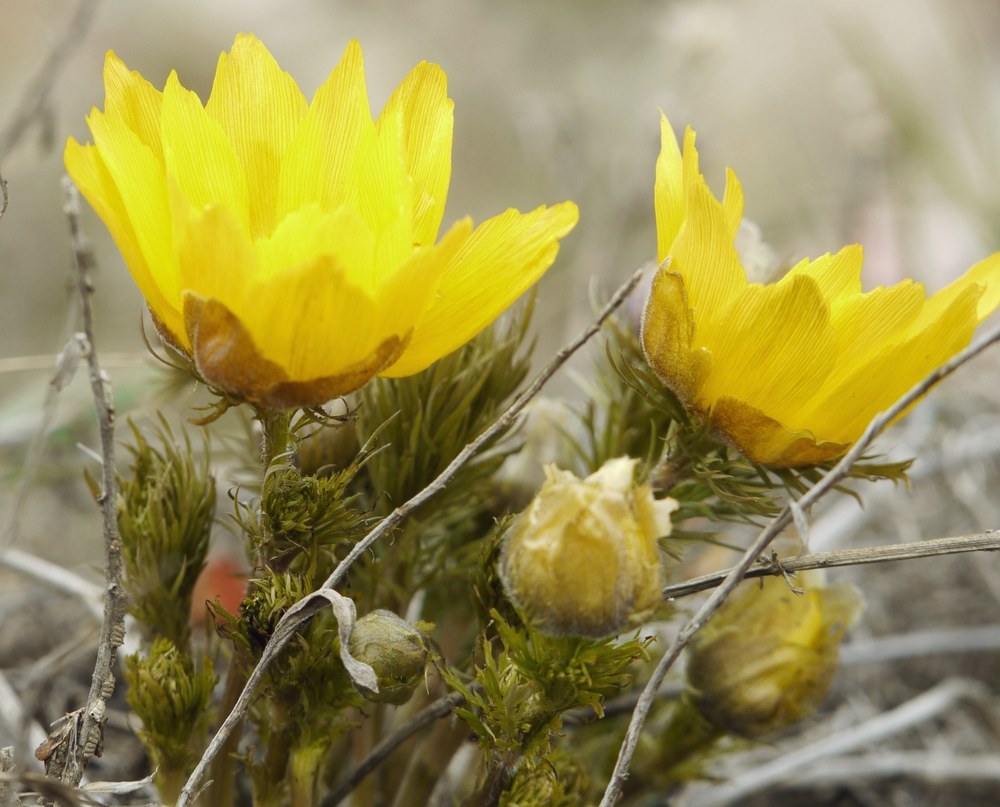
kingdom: Plantae
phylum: Tracheophyta
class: Magnoliopsida
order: Ranunculales
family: Ranunculaceae
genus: Adonis
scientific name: Adonis vernalis
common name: Yellow pheasants-eye
